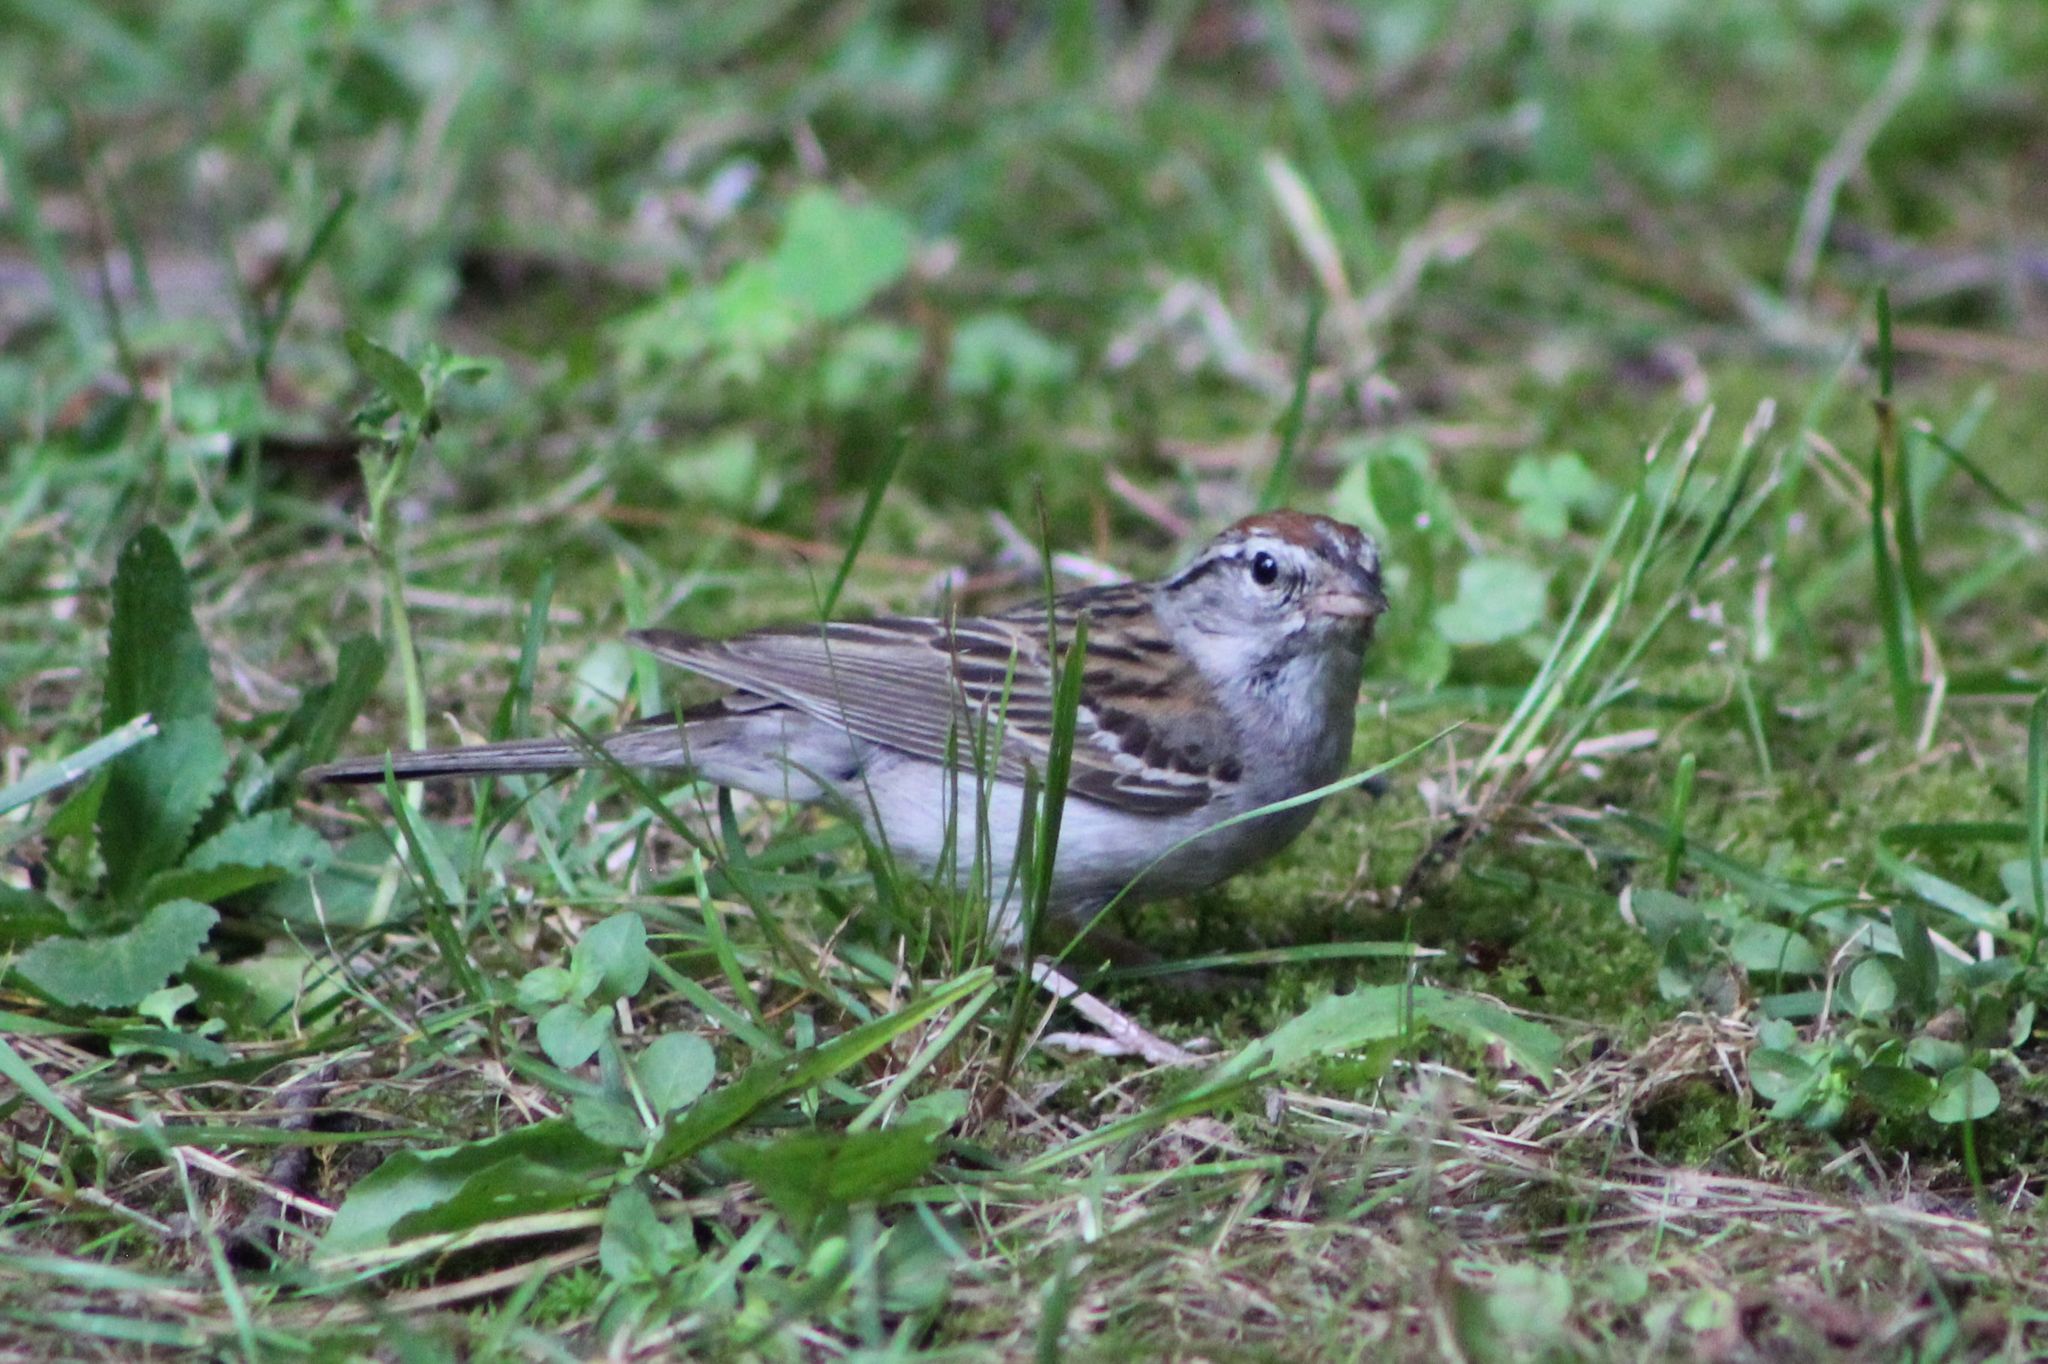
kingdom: Animalia
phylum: Chordata
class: Aves
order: Passeriformes
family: Passerellidae
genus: Spizella
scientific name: Spizella passerina
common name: Chipping sparrow
